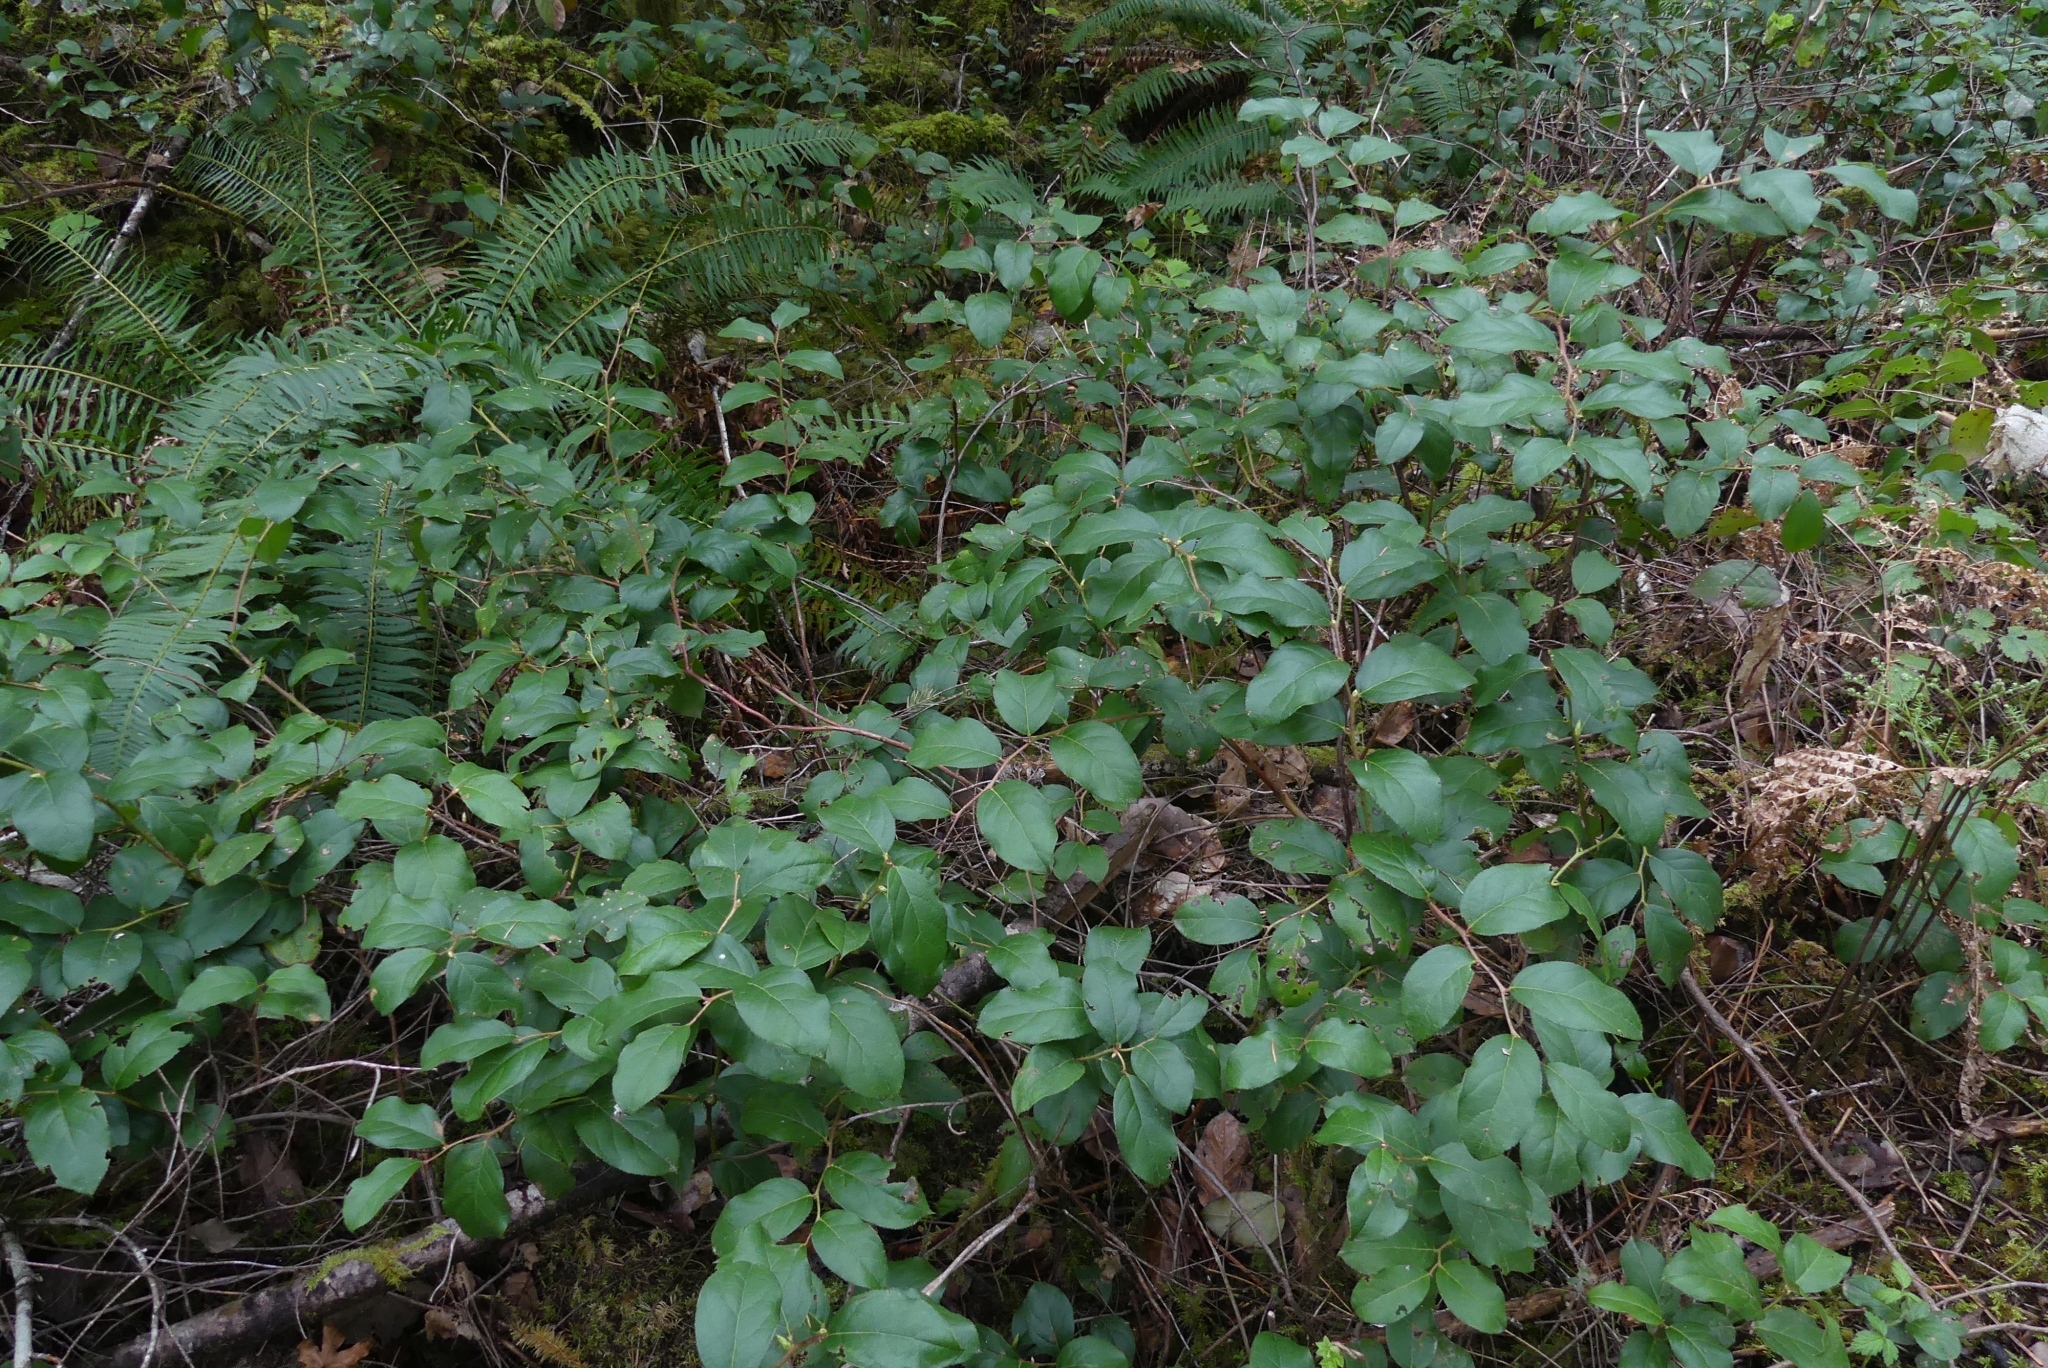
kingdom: Plantae
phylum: Tracheophyta
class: Magnoliopsida
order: Ericales
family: Ericaceae
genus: Gaultheria
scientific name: Gaultheria shallon
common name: Shallon
